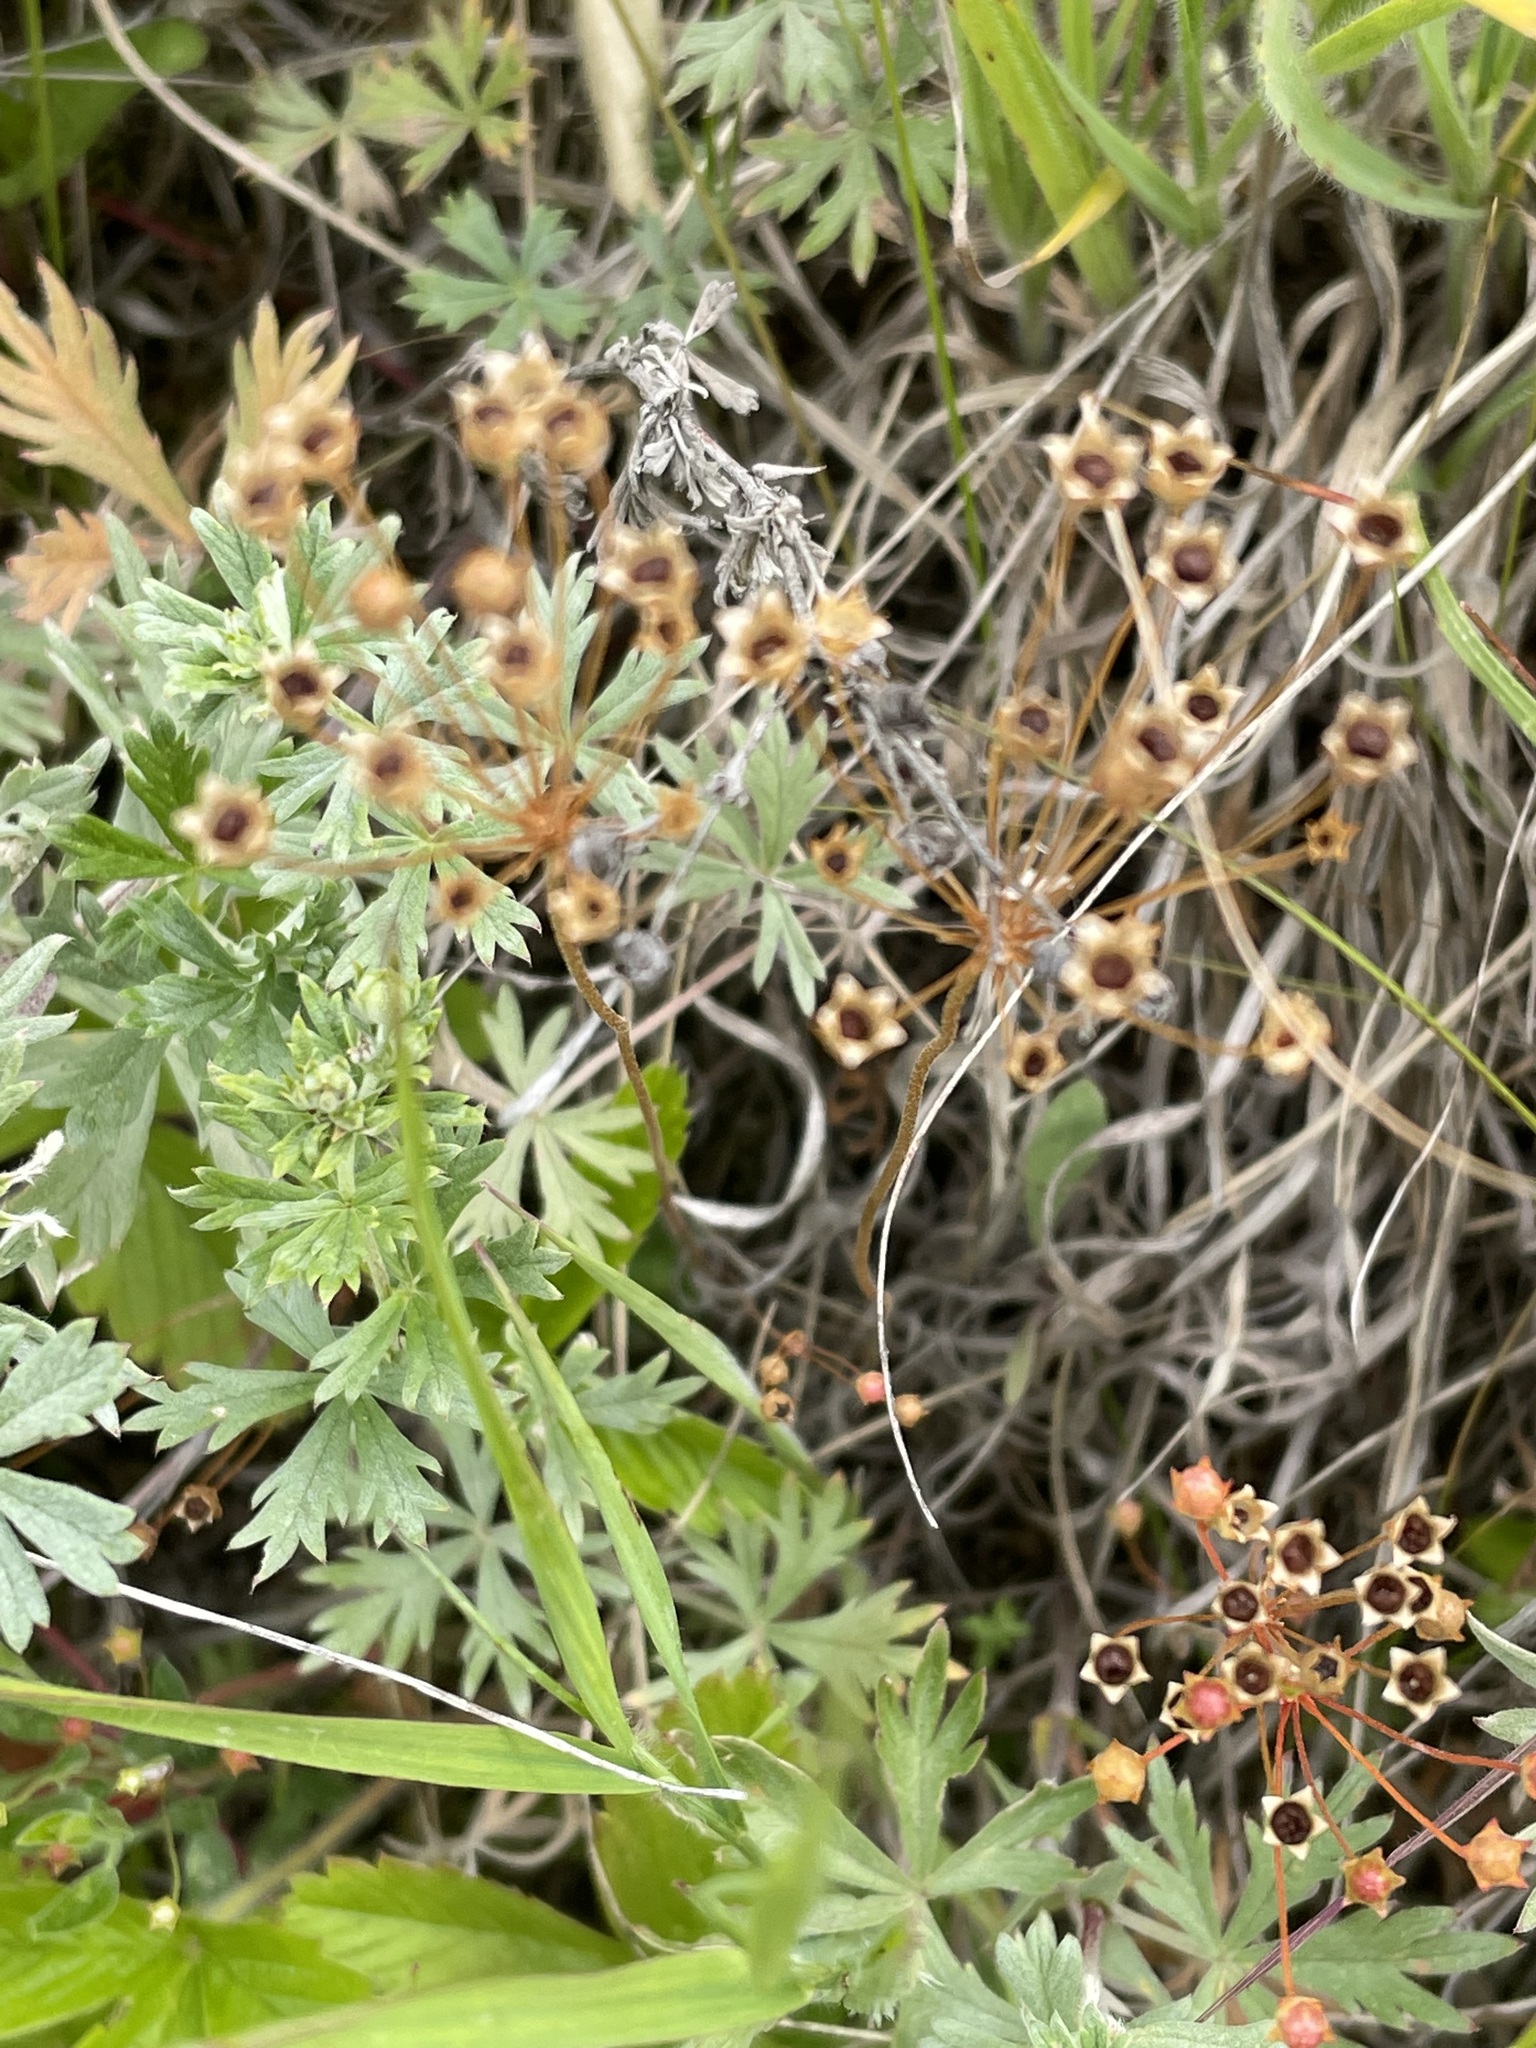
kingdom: Plantae
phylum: Tracheophyta
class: Magnoliopsida
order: Rosales
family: Rosaceae
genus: Potentilla
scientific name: Potentilla argentea
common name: Hoary cinquefoil
